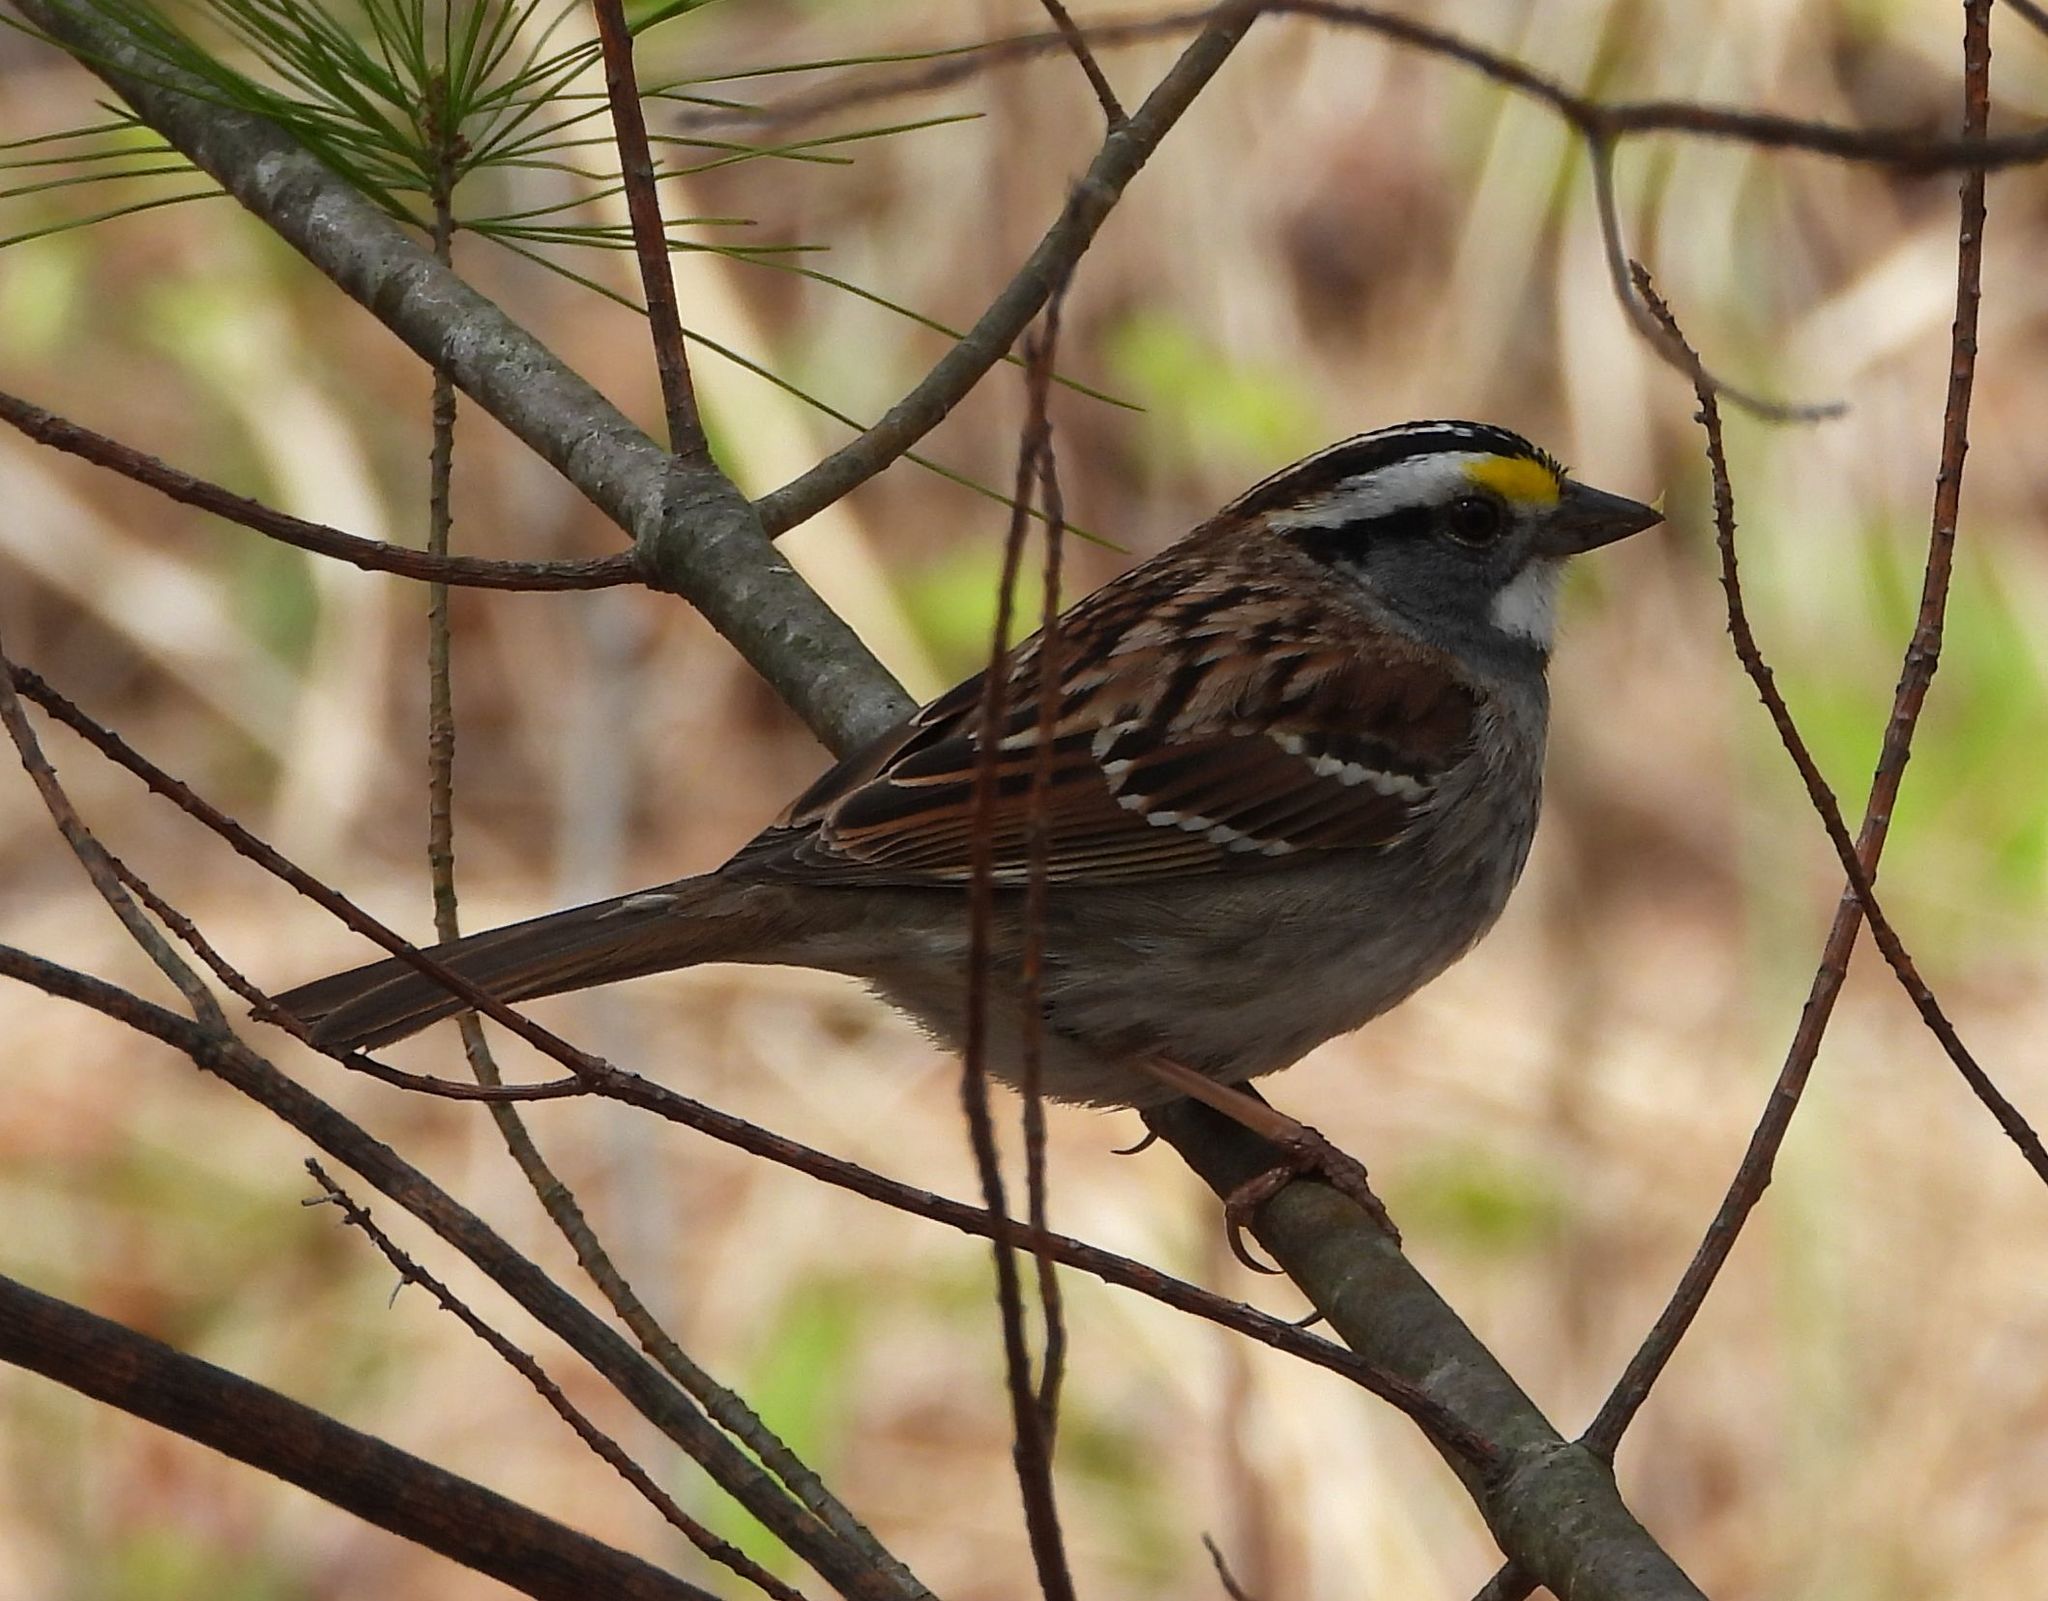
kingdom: Animalia
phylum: Chordata
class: Aves
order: Passeriformes
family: Passerellidae
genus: Zonotrichia
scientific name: Zonotrichia albicollis
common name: White-throated sparrow
